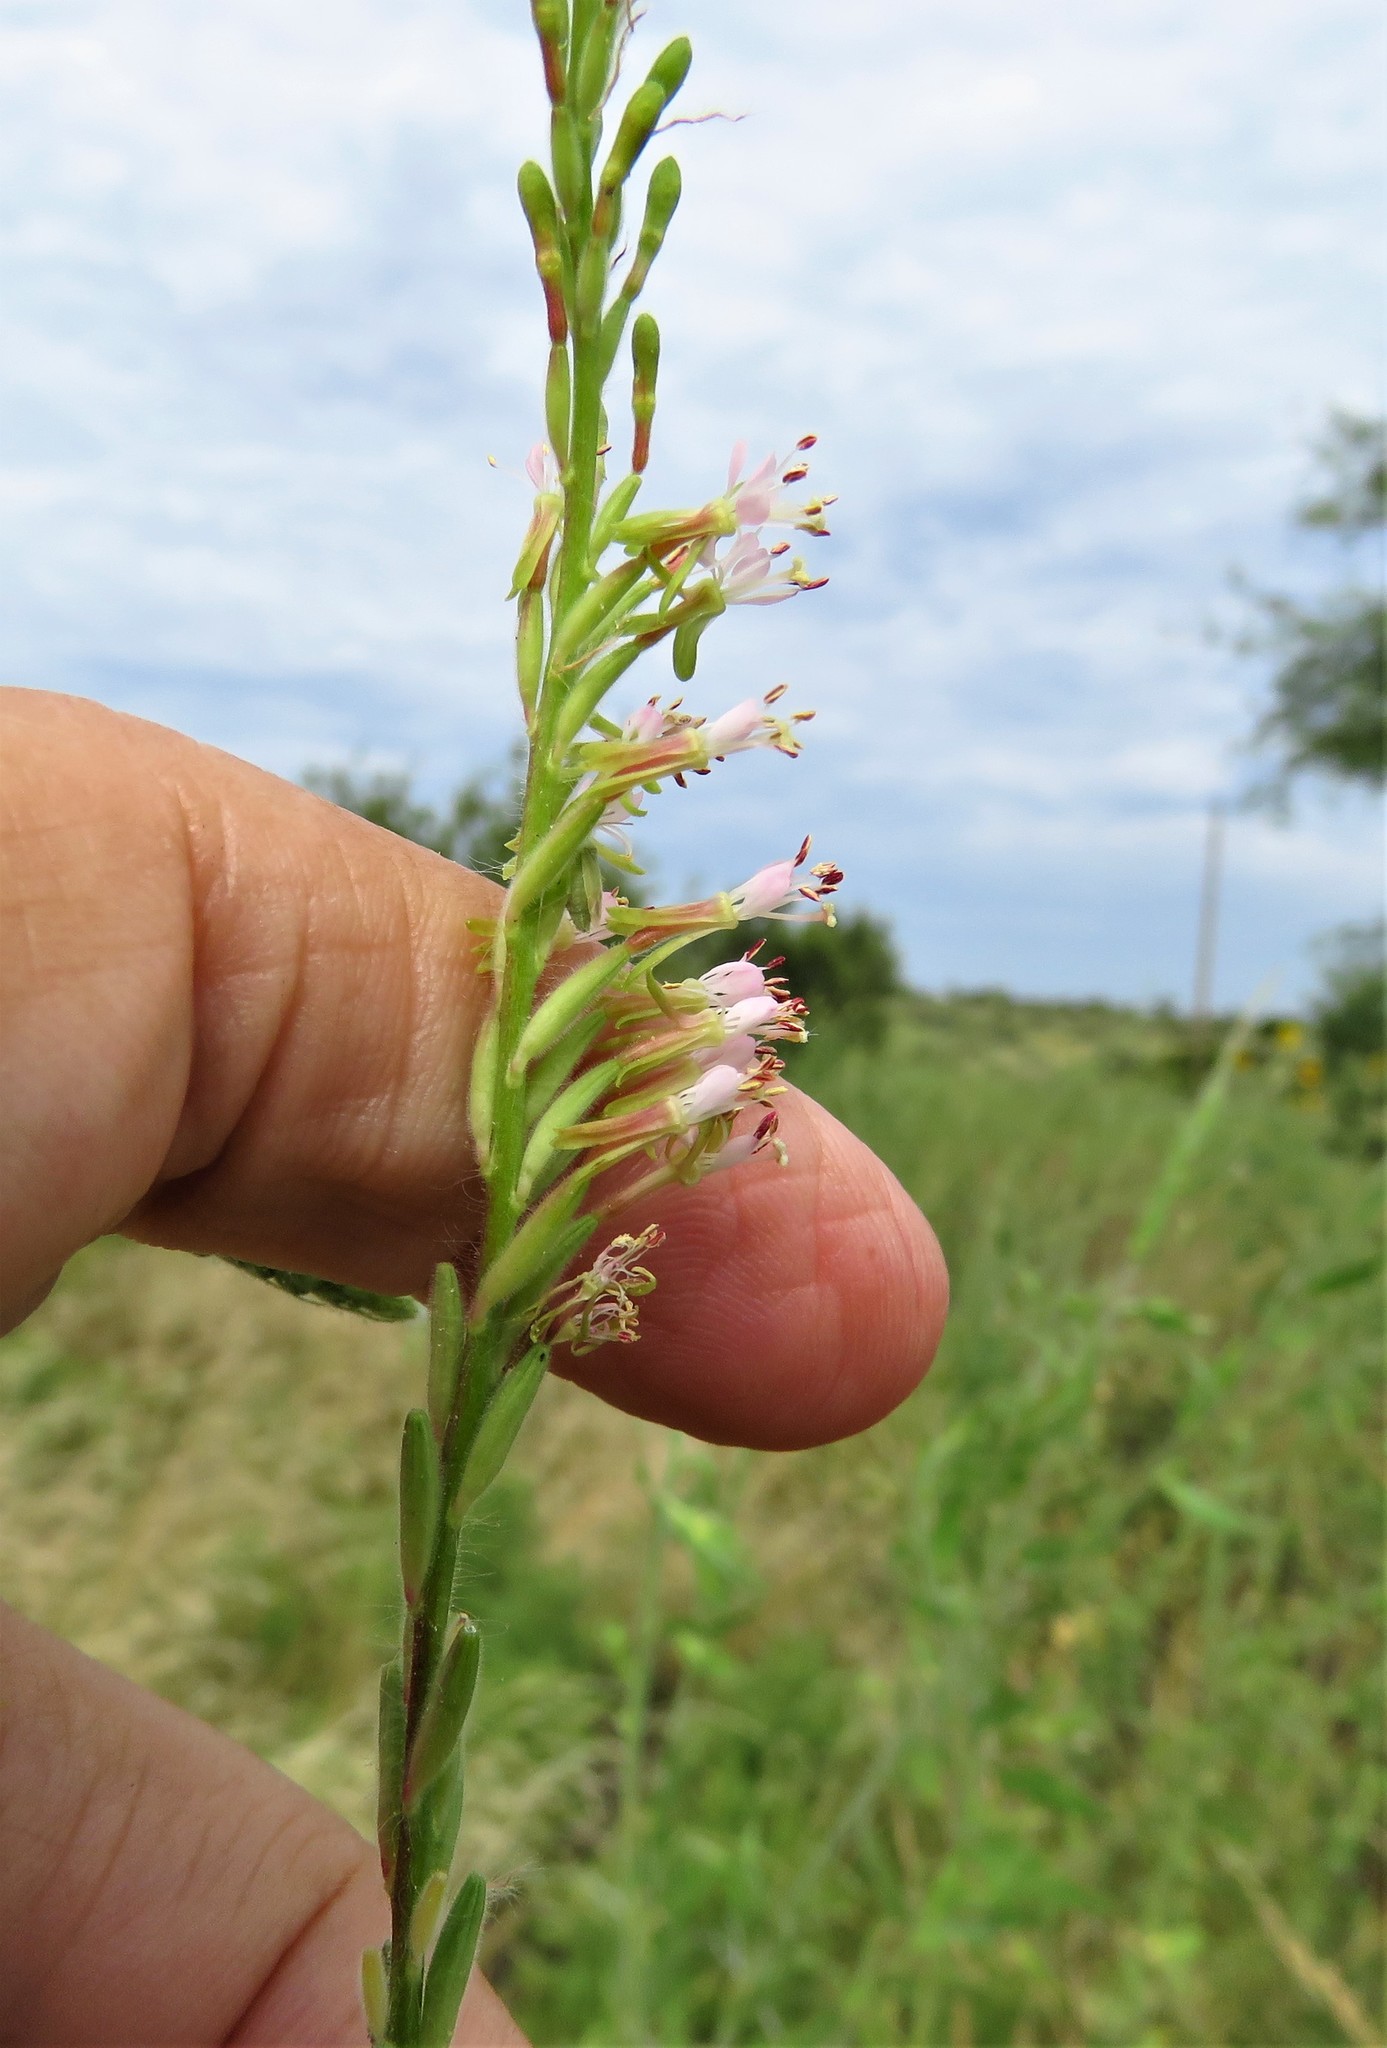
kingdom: Plantae
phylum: Tracheophyta
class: Magnoliopsida
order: Myrtales
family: Onagraceae
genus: Oenothera
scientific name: Oenothera curtiflora
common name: Velvetweed
